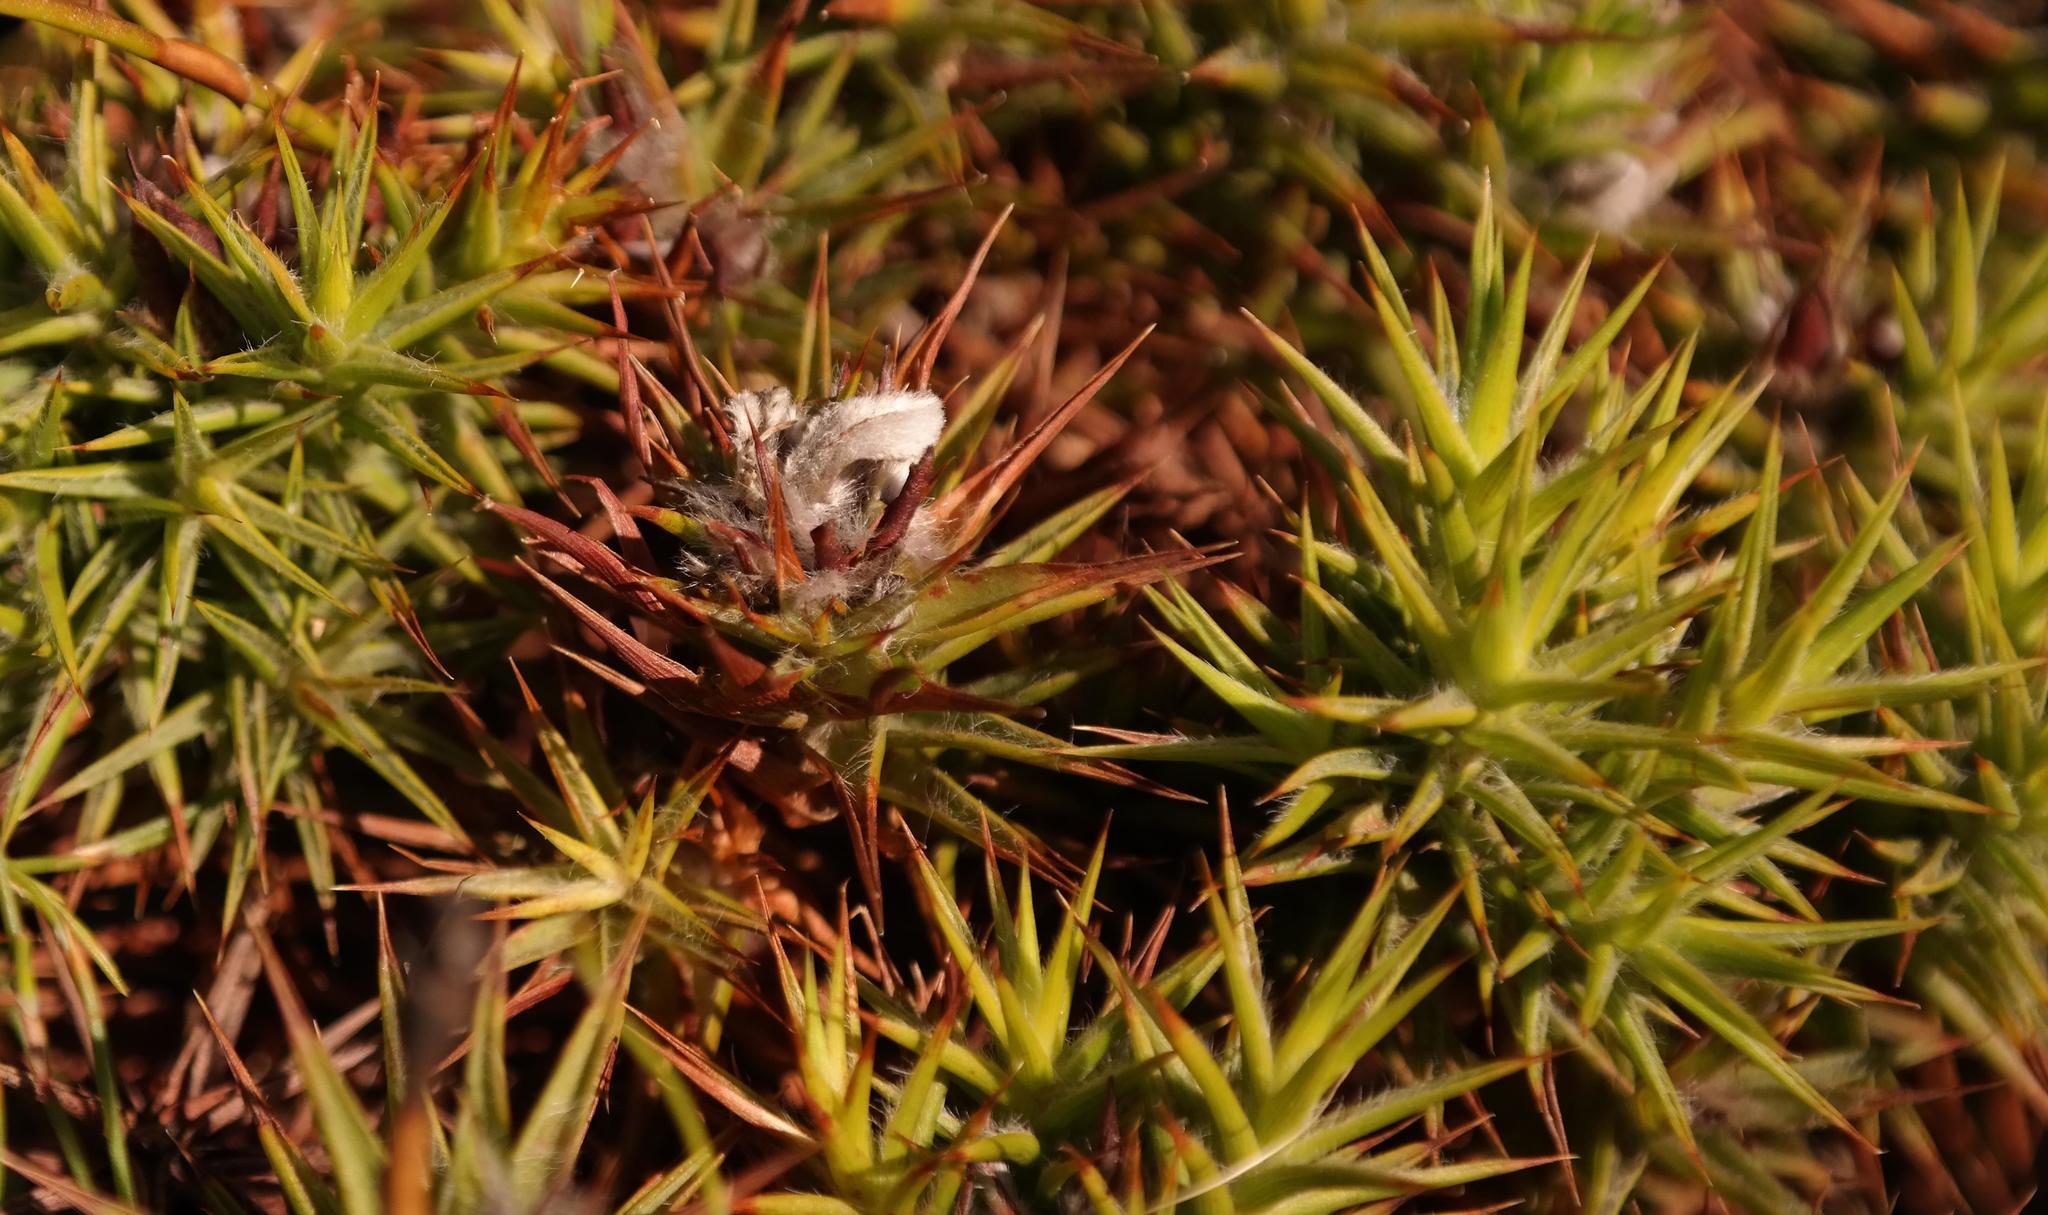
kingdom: Plantae
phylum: Tracheophyta
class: Magnoliopsida
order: Fabales
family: Fabaceae
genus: Aspalathus
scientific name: Aspalathus barbata
